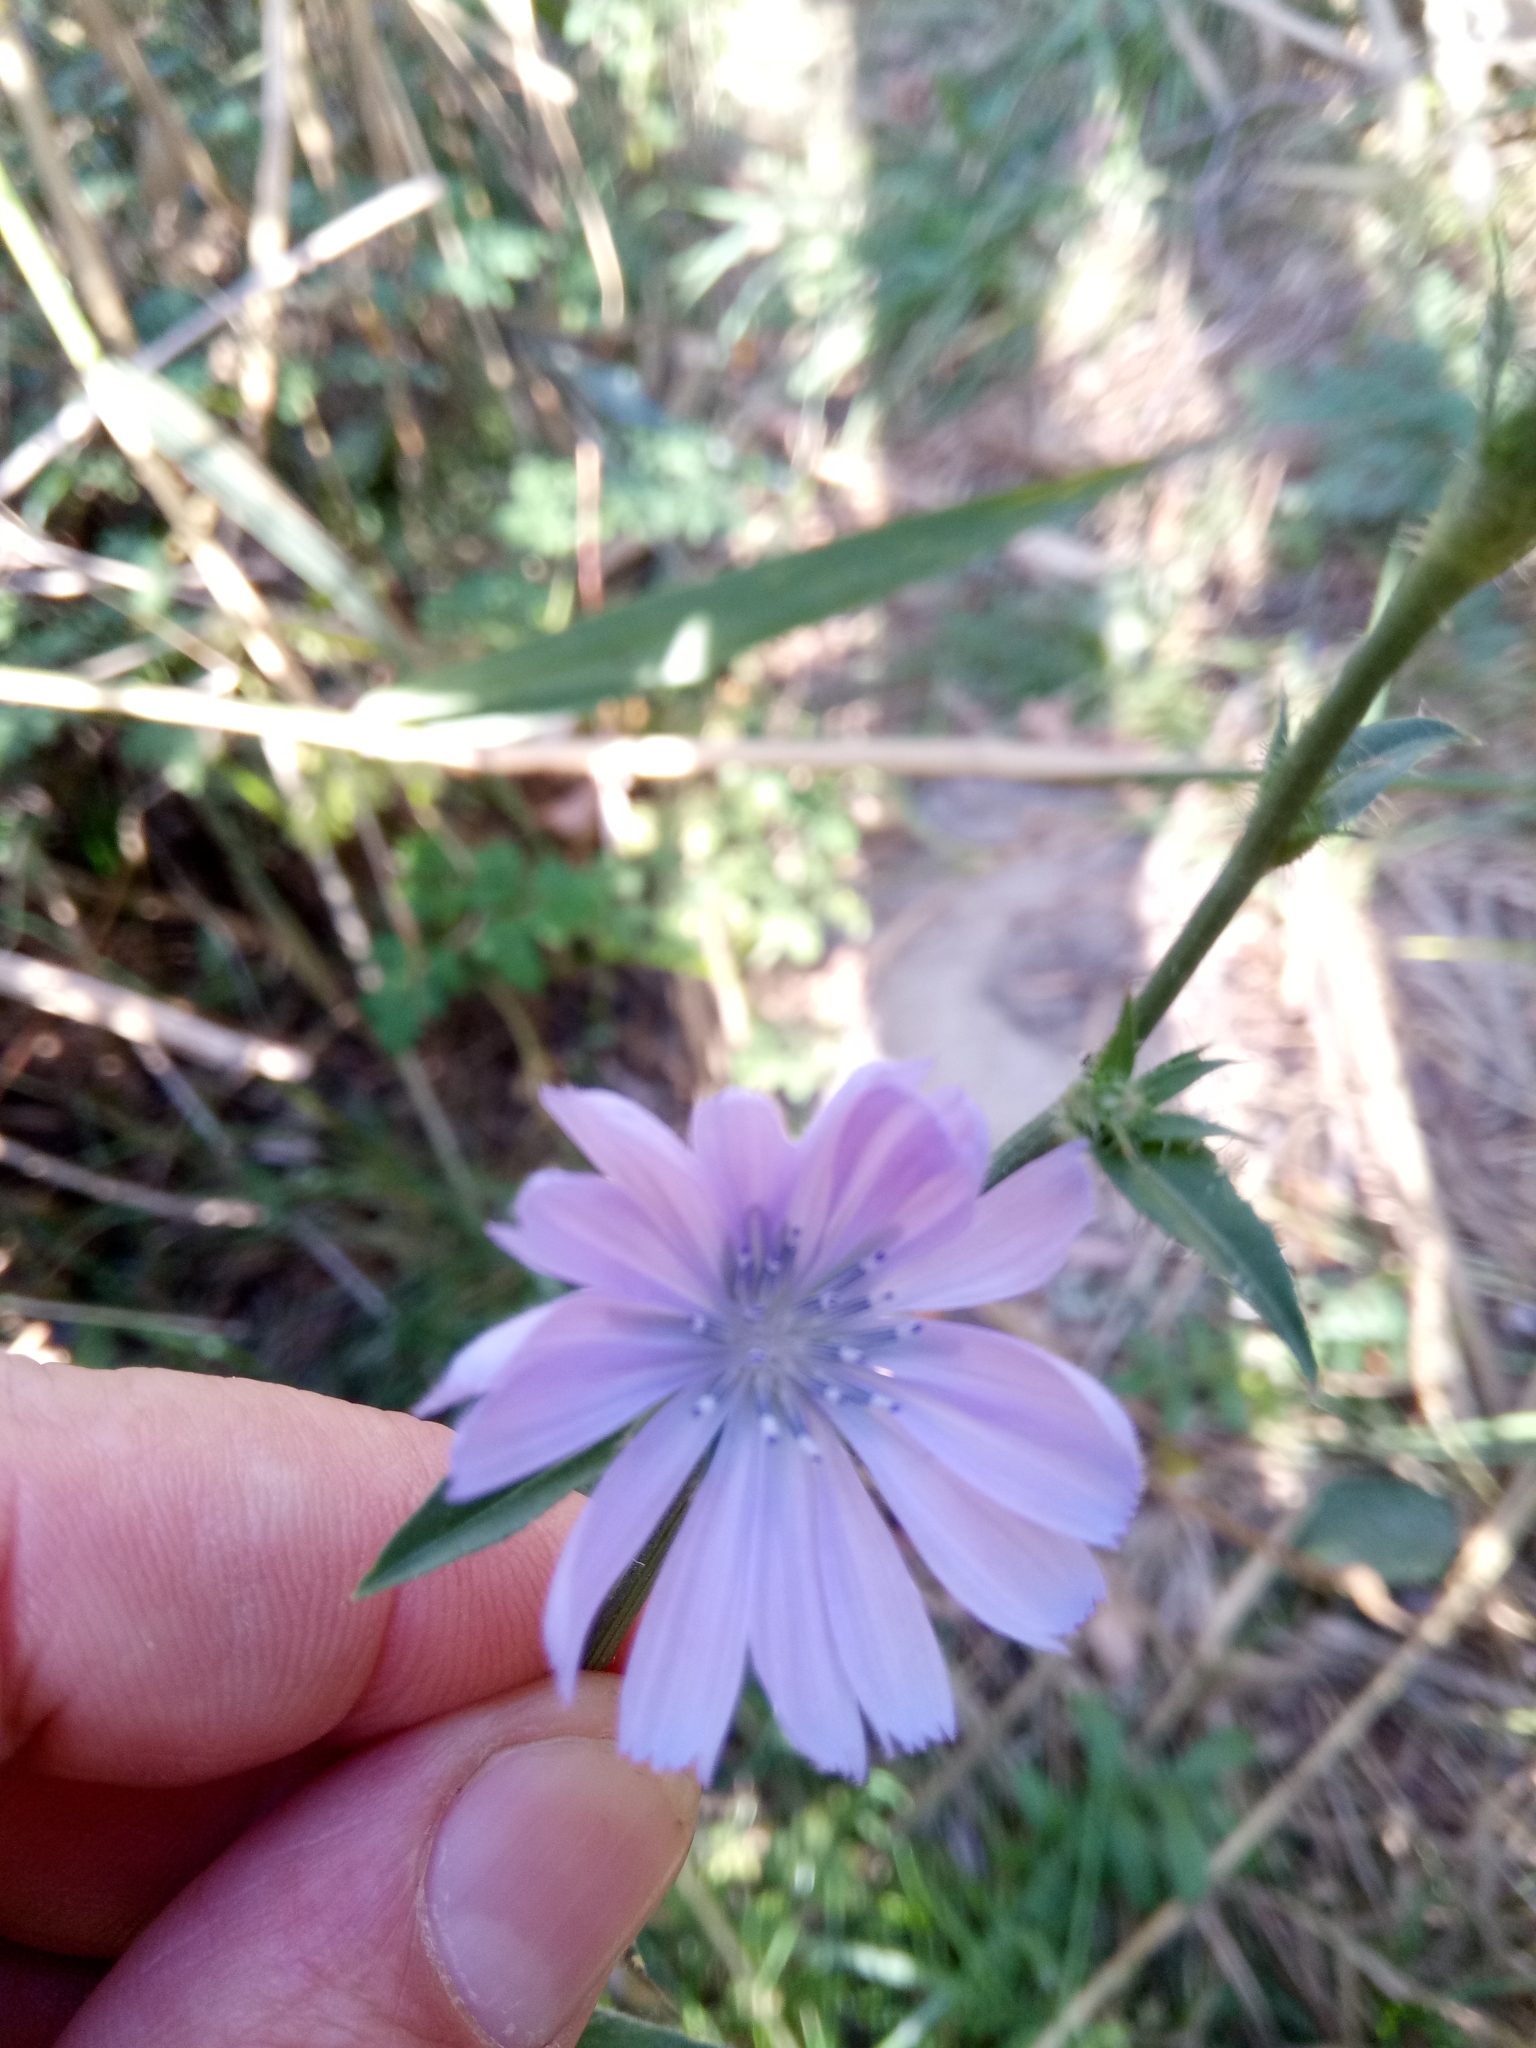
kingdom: Plantae
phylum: Tracheophyta
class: Magnoliopsida
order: Asterales
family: Asteraceae
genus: Cichorium
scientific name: Cichorium intybus
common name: Chicory
